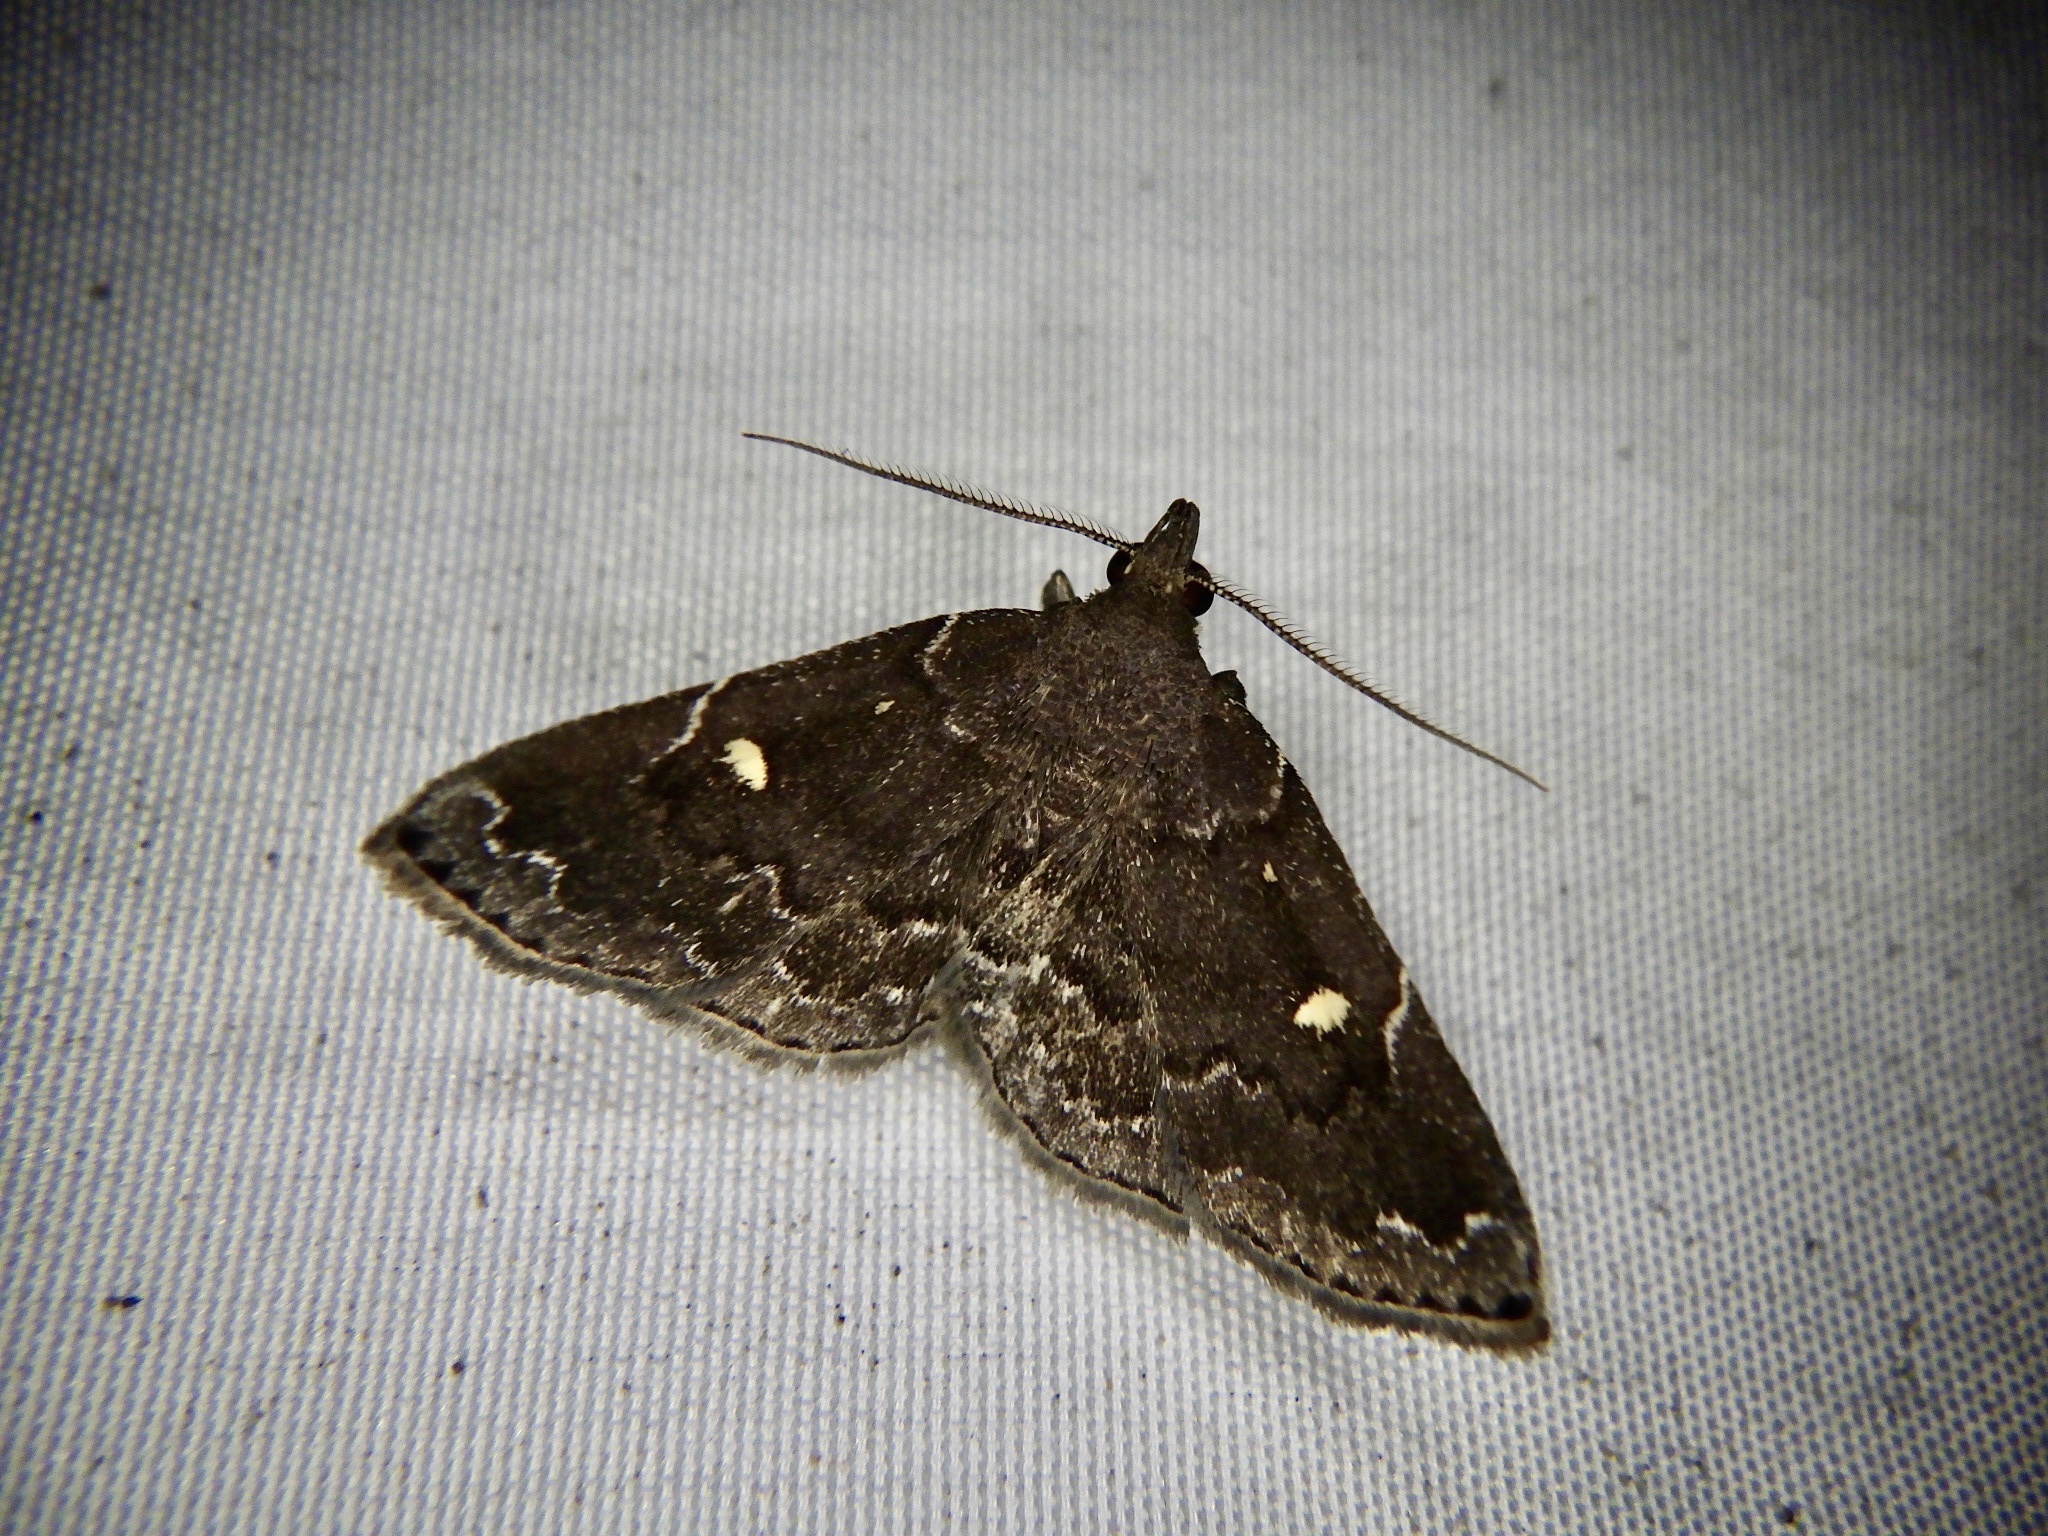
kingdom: Animalia
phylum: Arthropoda
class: Insecta
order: Lepidoptera
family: Erebidae
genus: Idia
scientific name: Idia curvipalpis
